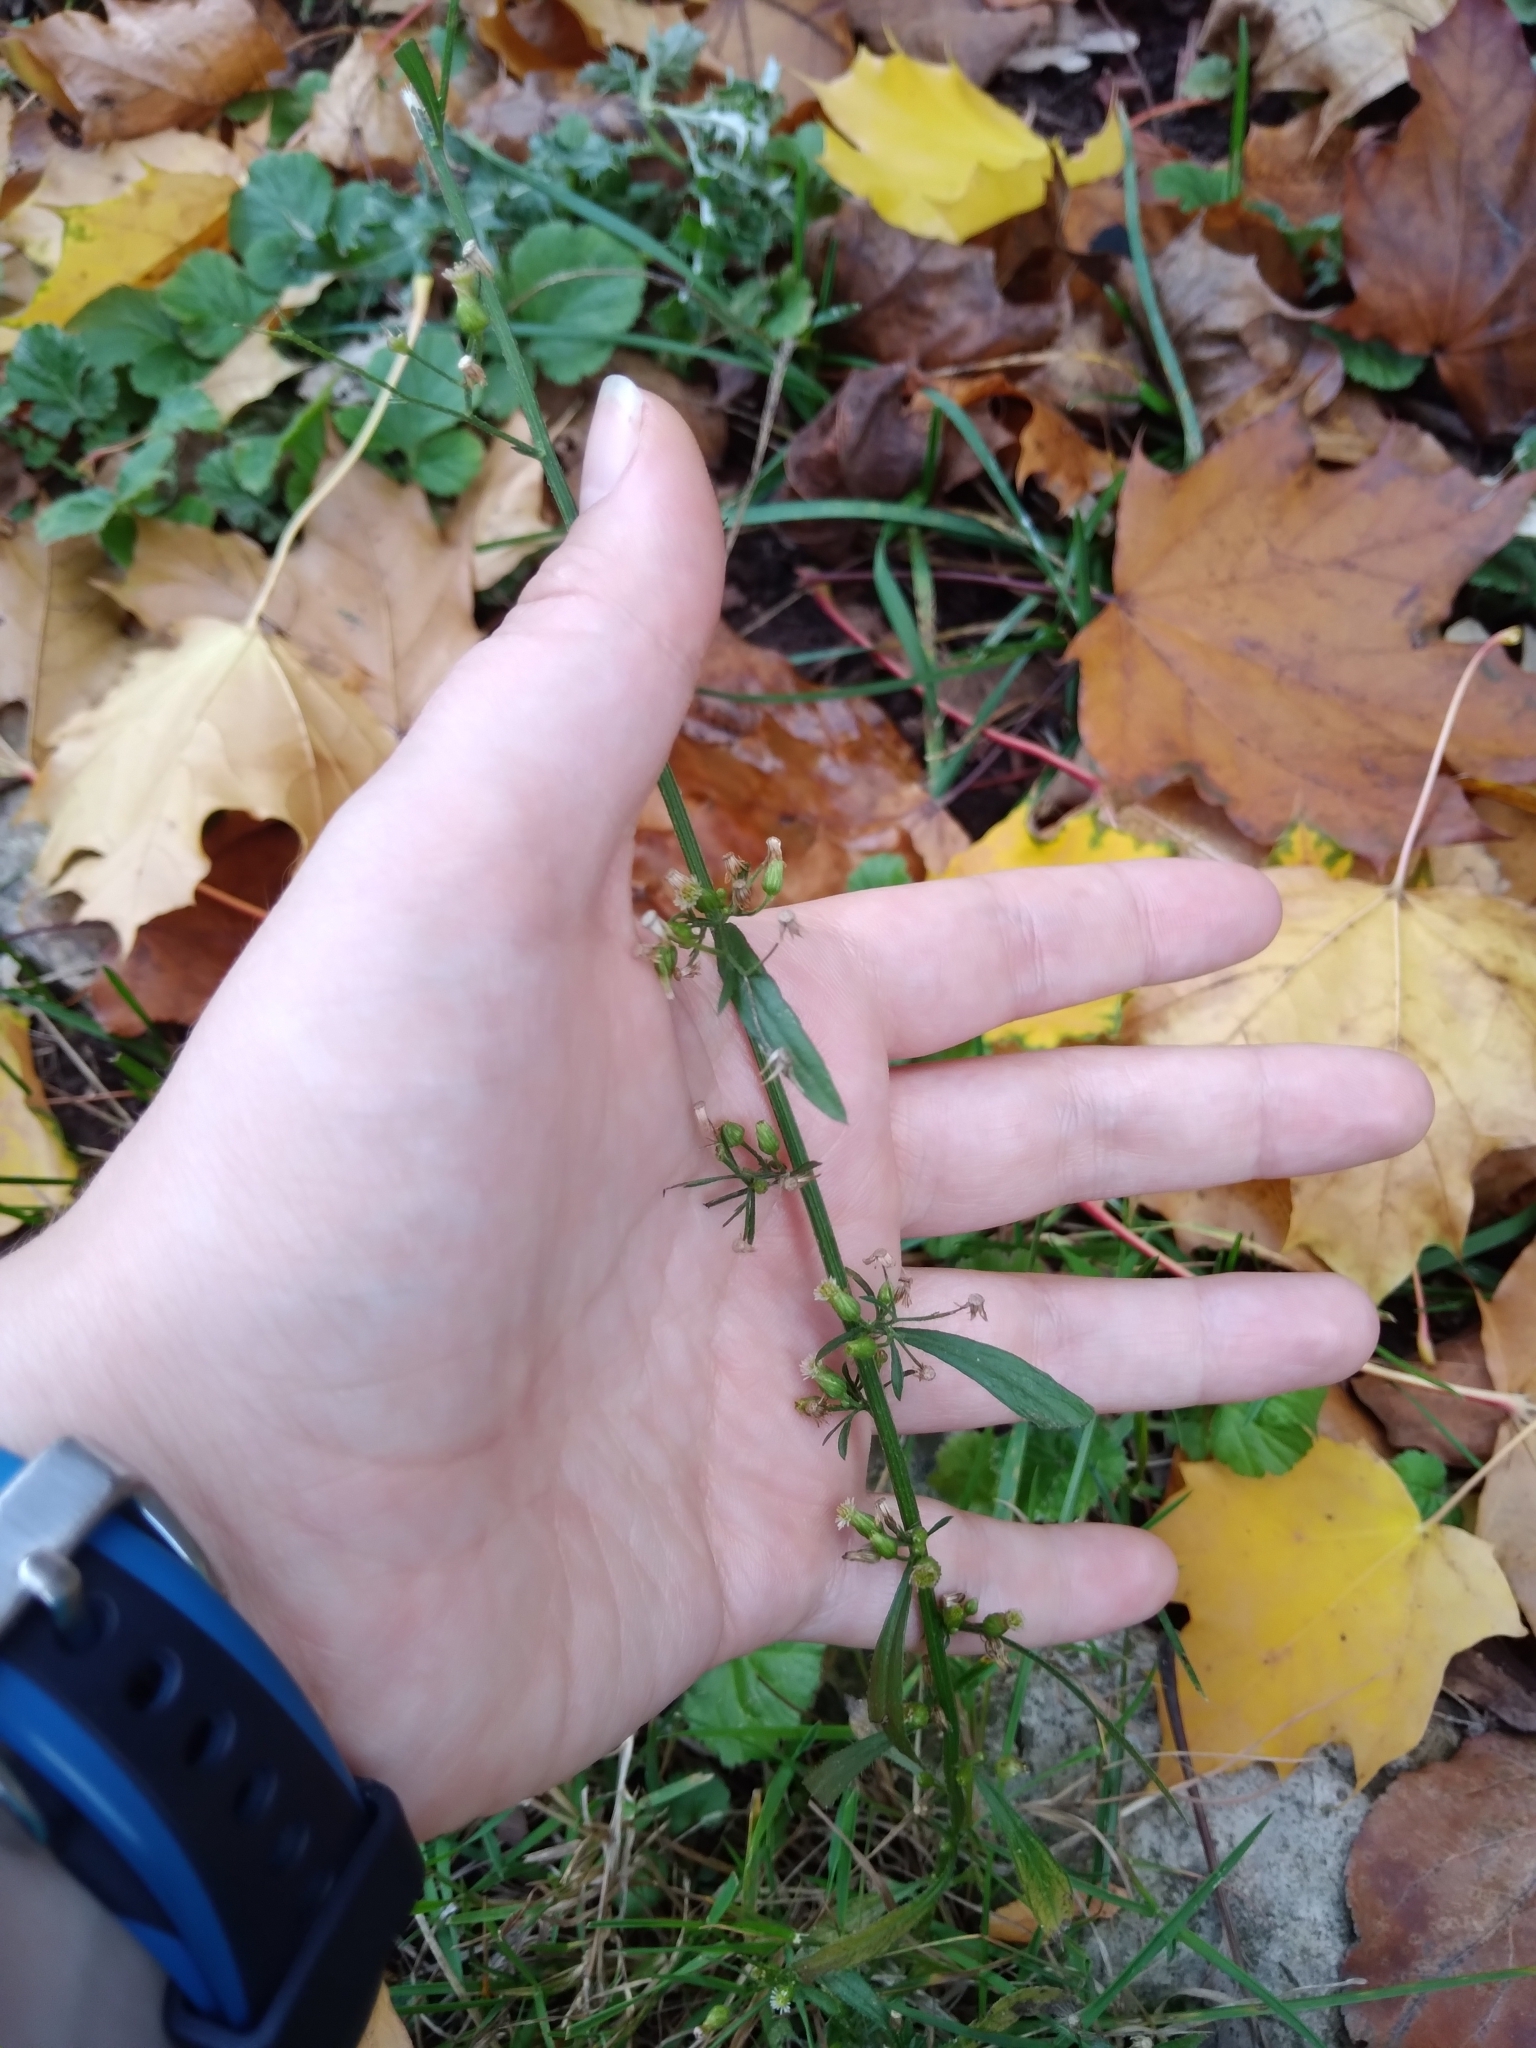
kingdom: Plantae
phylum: Tracheophyta
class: Magnoliopsida
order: Asterales
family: Asteraceae
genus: Erigeron
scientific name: Erigeron canadensis
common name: Canadian fleabane
